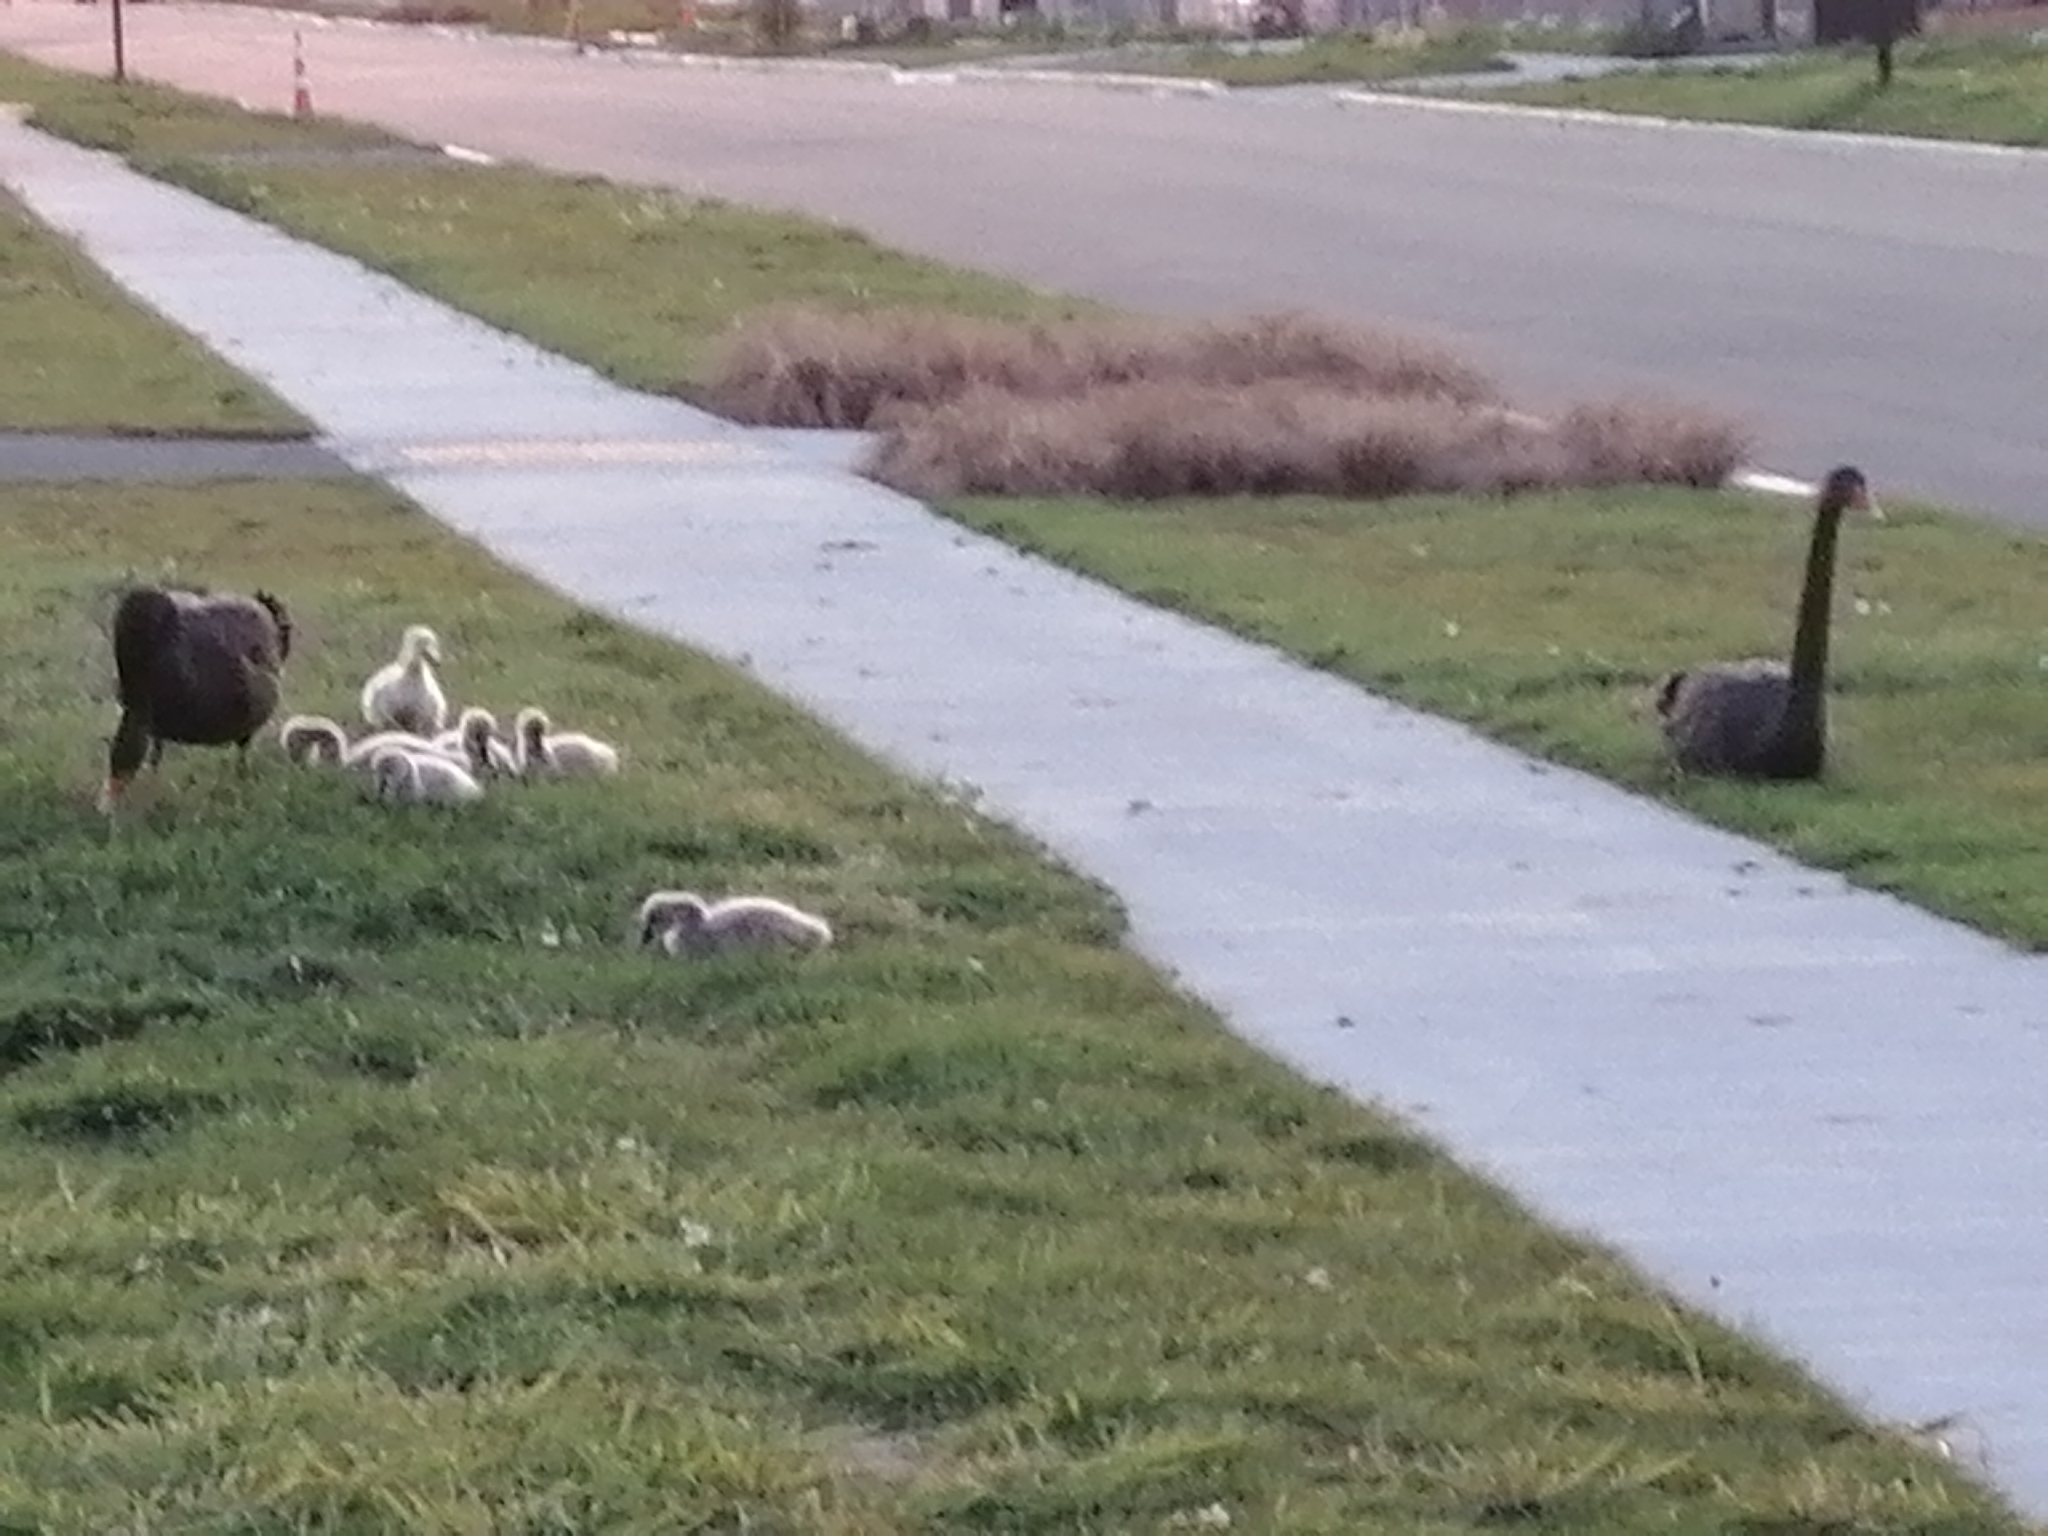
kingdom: Animalia
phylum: Chordata
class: Aves
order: Anseriformes
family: Anatidae
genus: Cygnus
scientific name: Cygnus atratus
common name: Black swan
